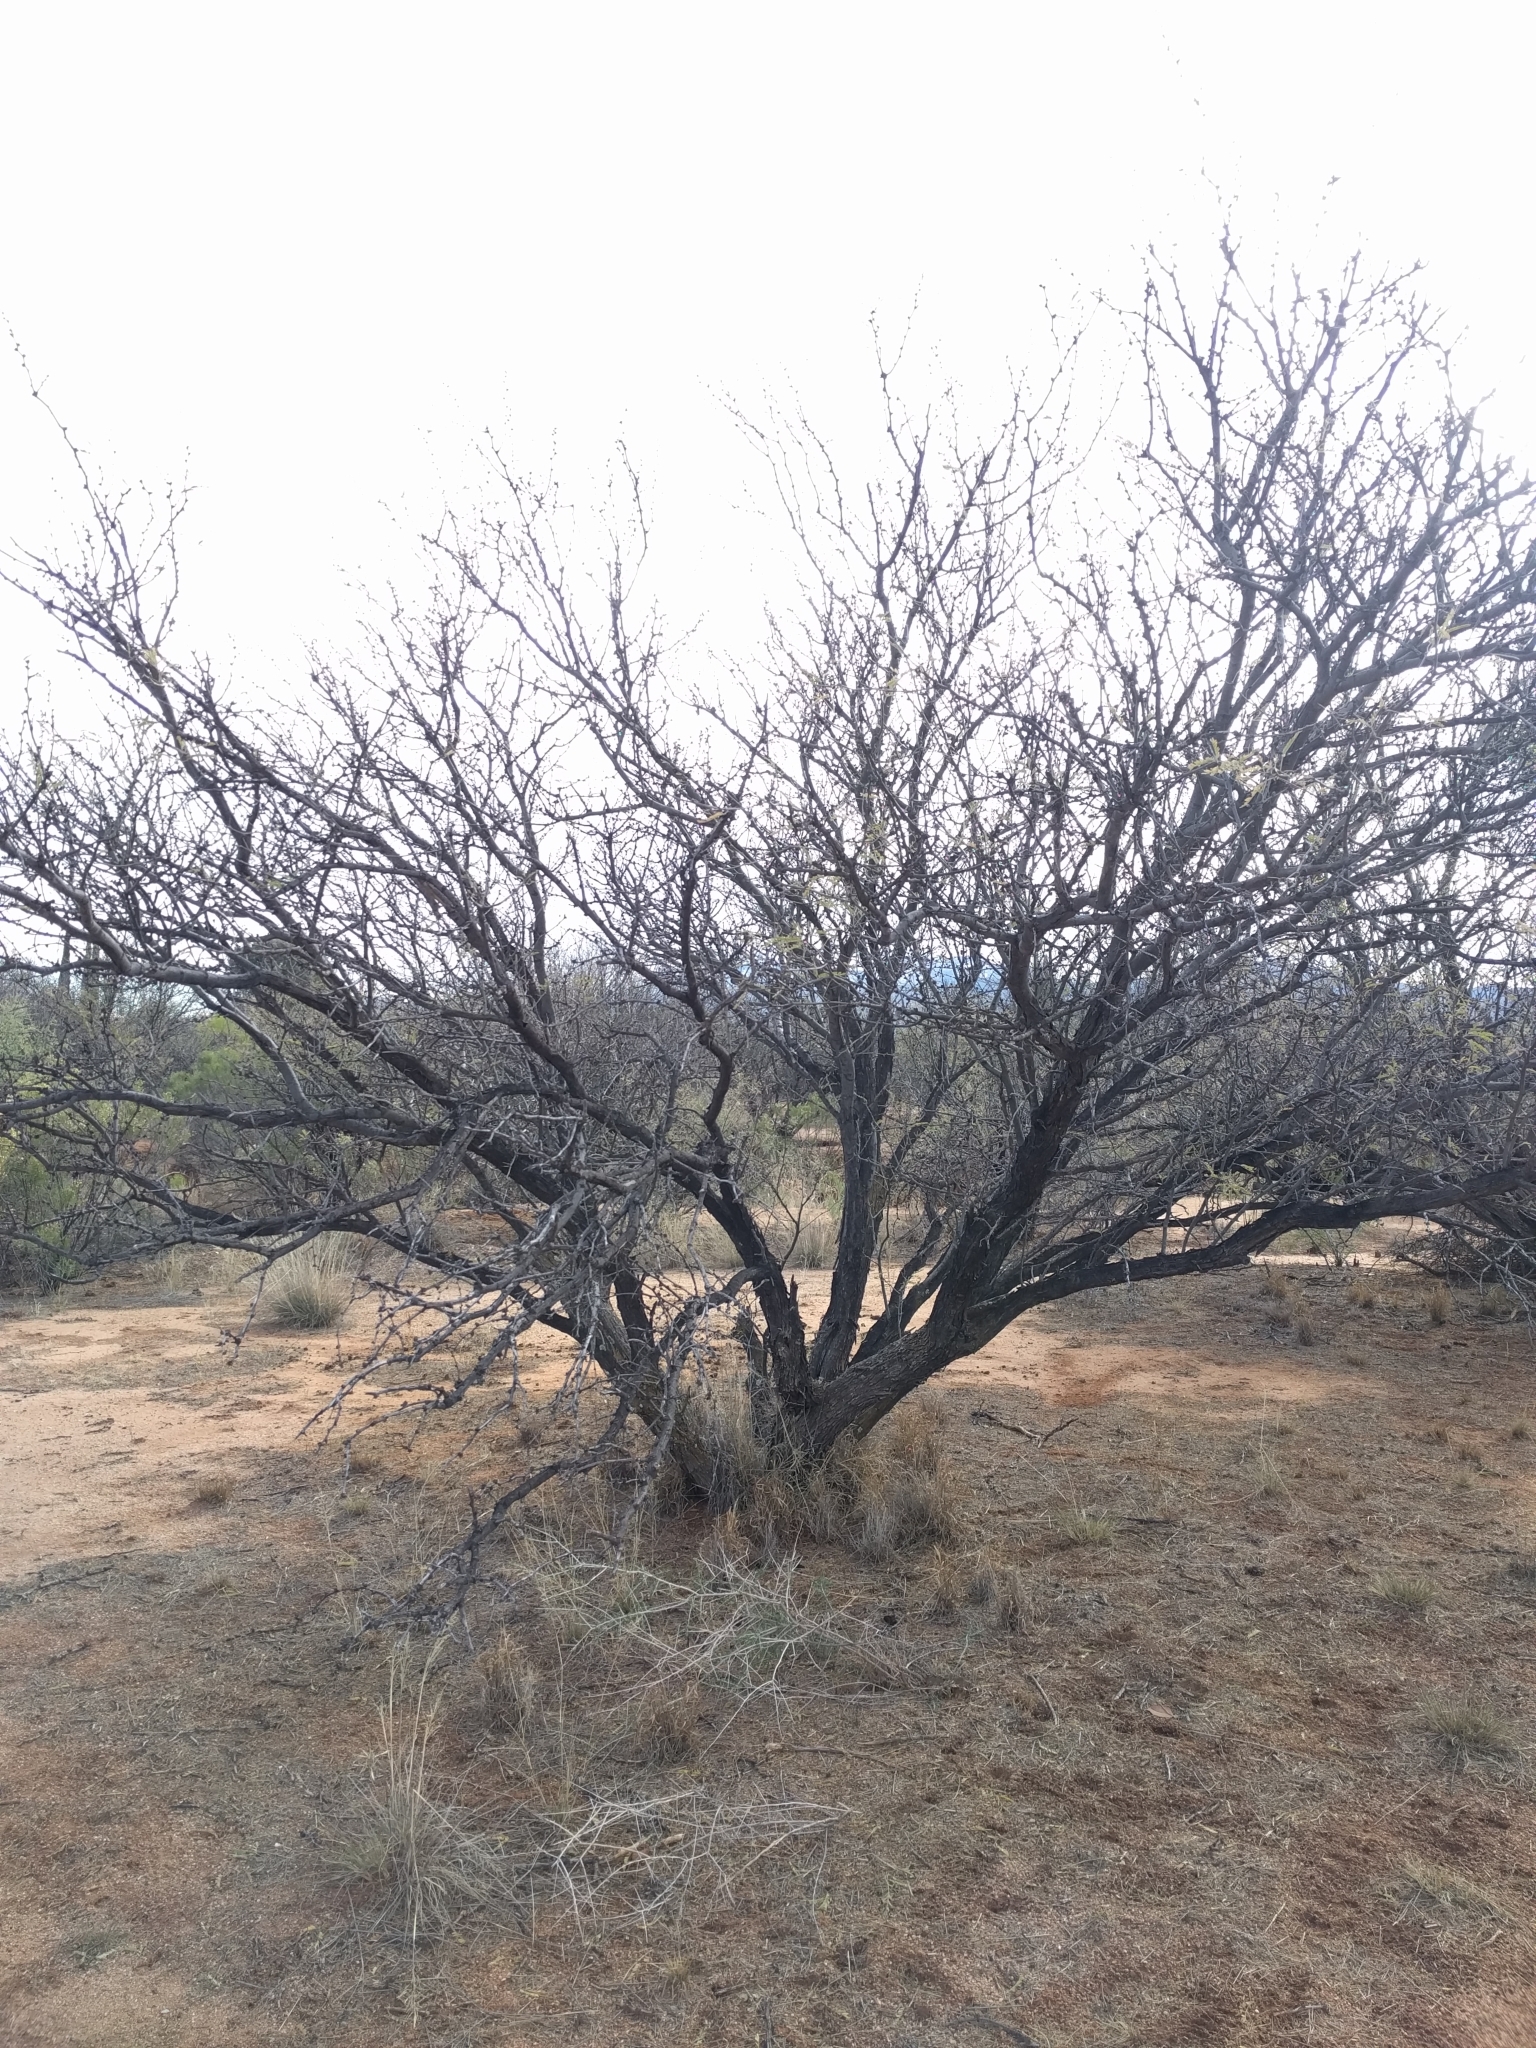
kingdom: Plantae
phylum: Tracheophyta
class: Magnoliopsida
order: Fabales
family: Fabaceae
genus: Prosopis
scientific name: Prosopis velutina
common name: Velvet mesquite
